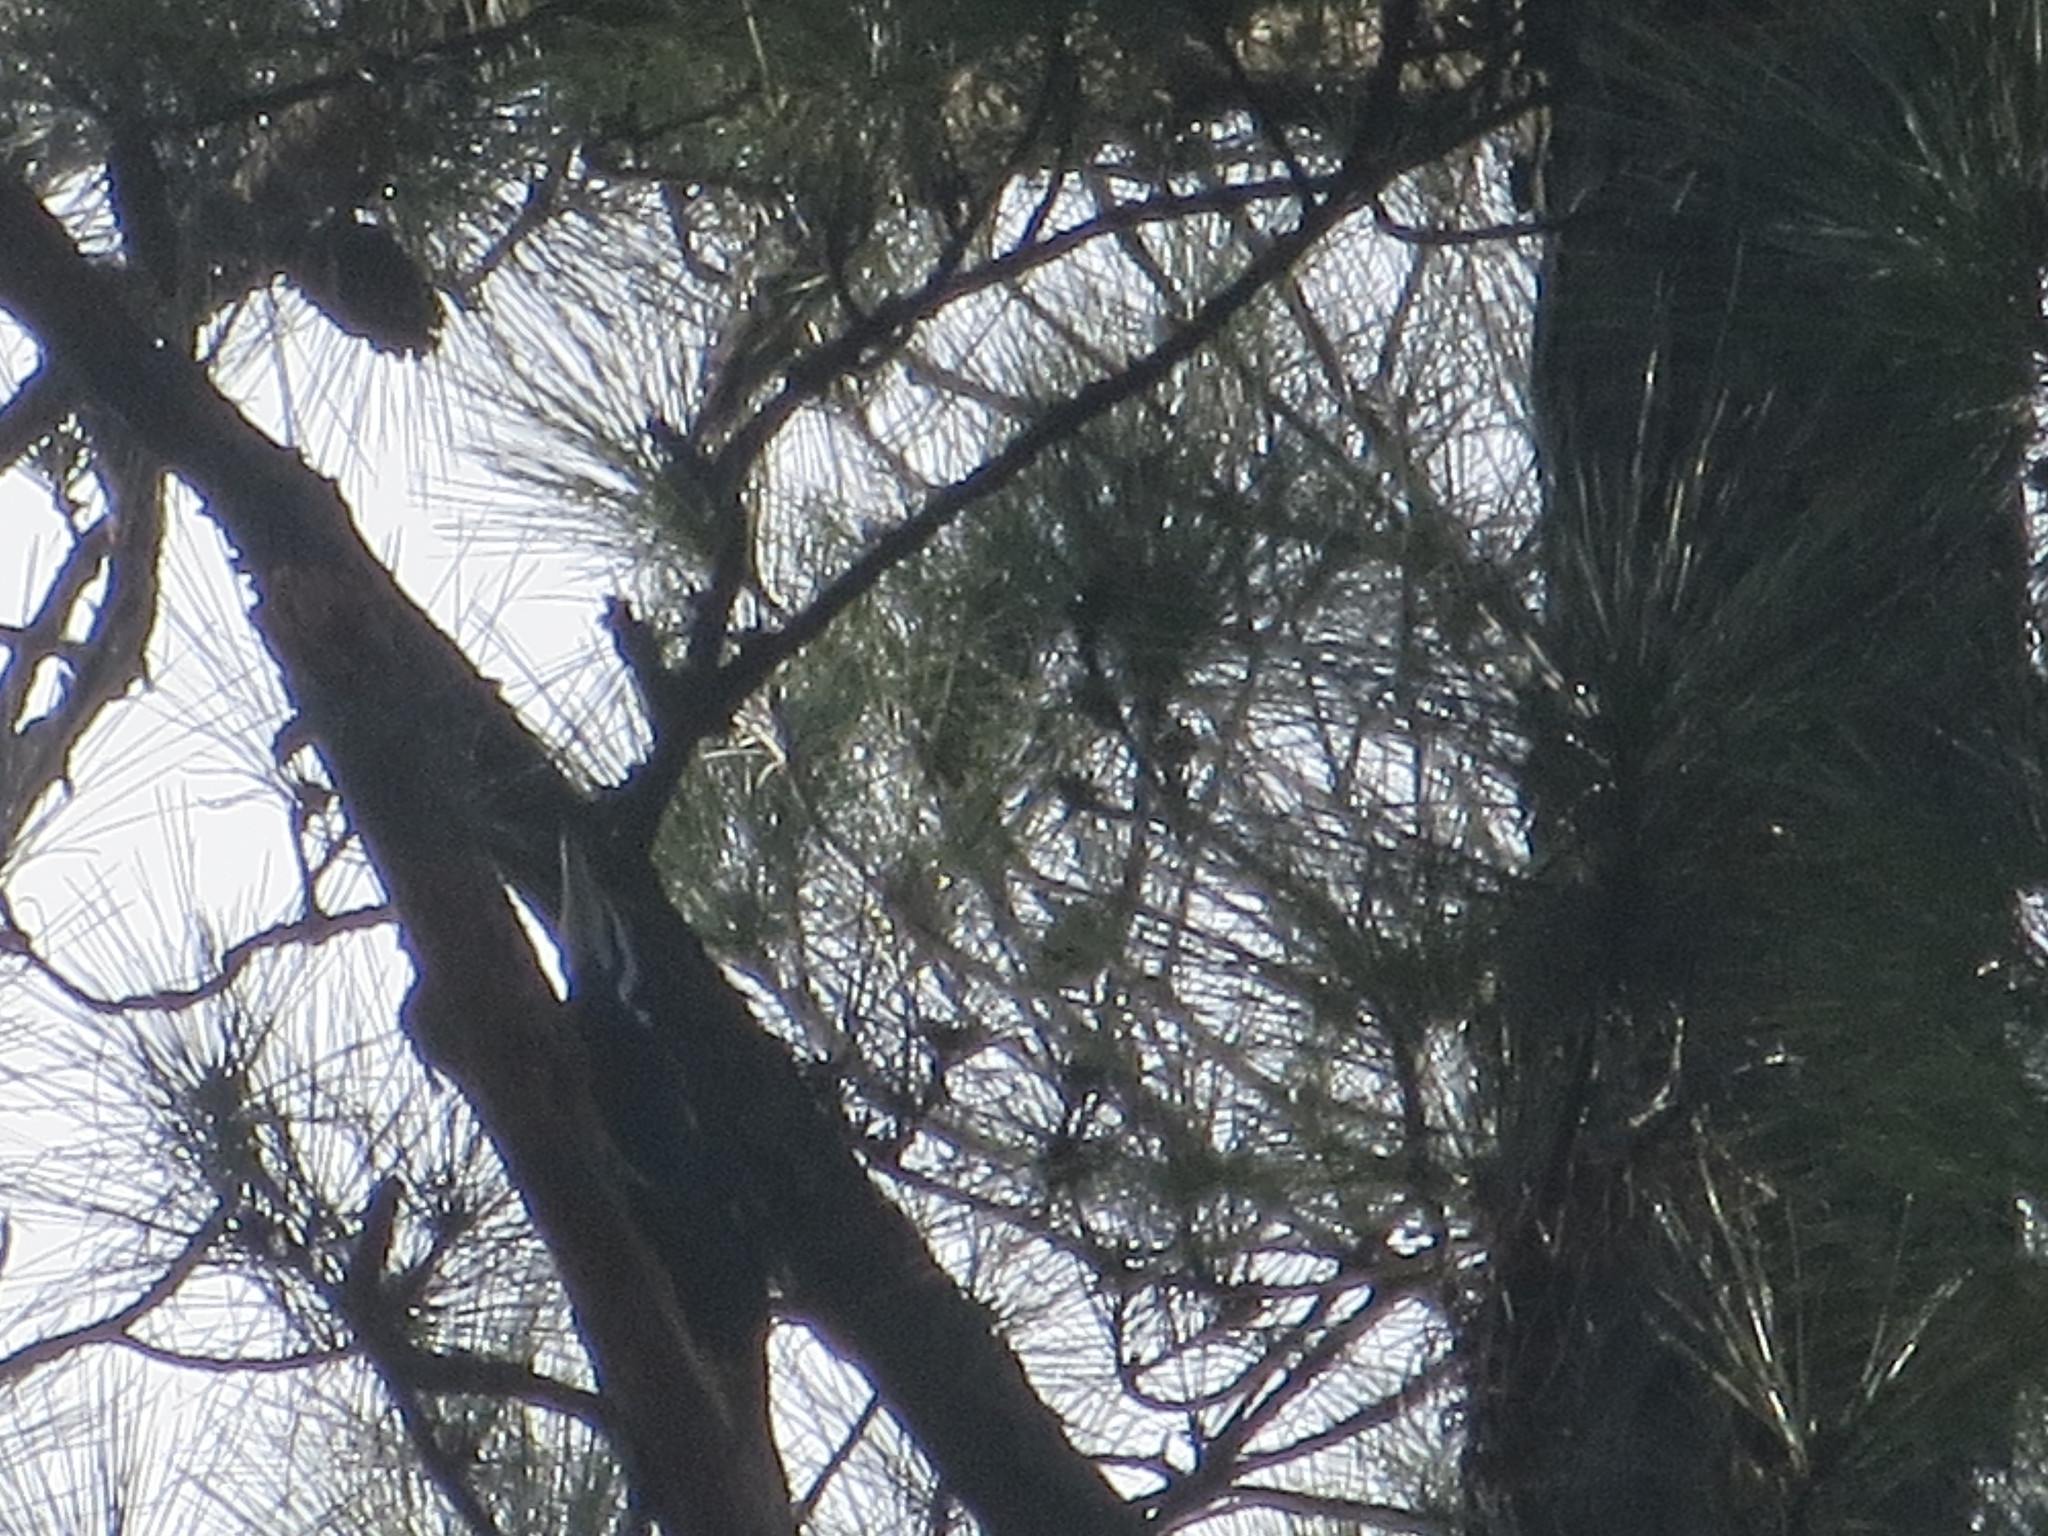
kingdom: Animalia
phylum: Chordata
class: Aves
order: Piciformes
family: Picidae
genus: Dryocopus
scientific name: Dryocopus pileatus
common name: Pileated woodpecker
